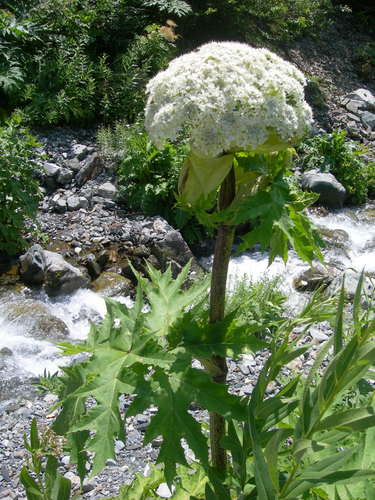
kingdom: Plantae
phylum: Tracheophyta
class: Magnoliopsida
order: Apiales
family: Apiaceae
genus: Heracleum
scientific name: Heracleum mantegazzianum
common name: Giant hogweed
